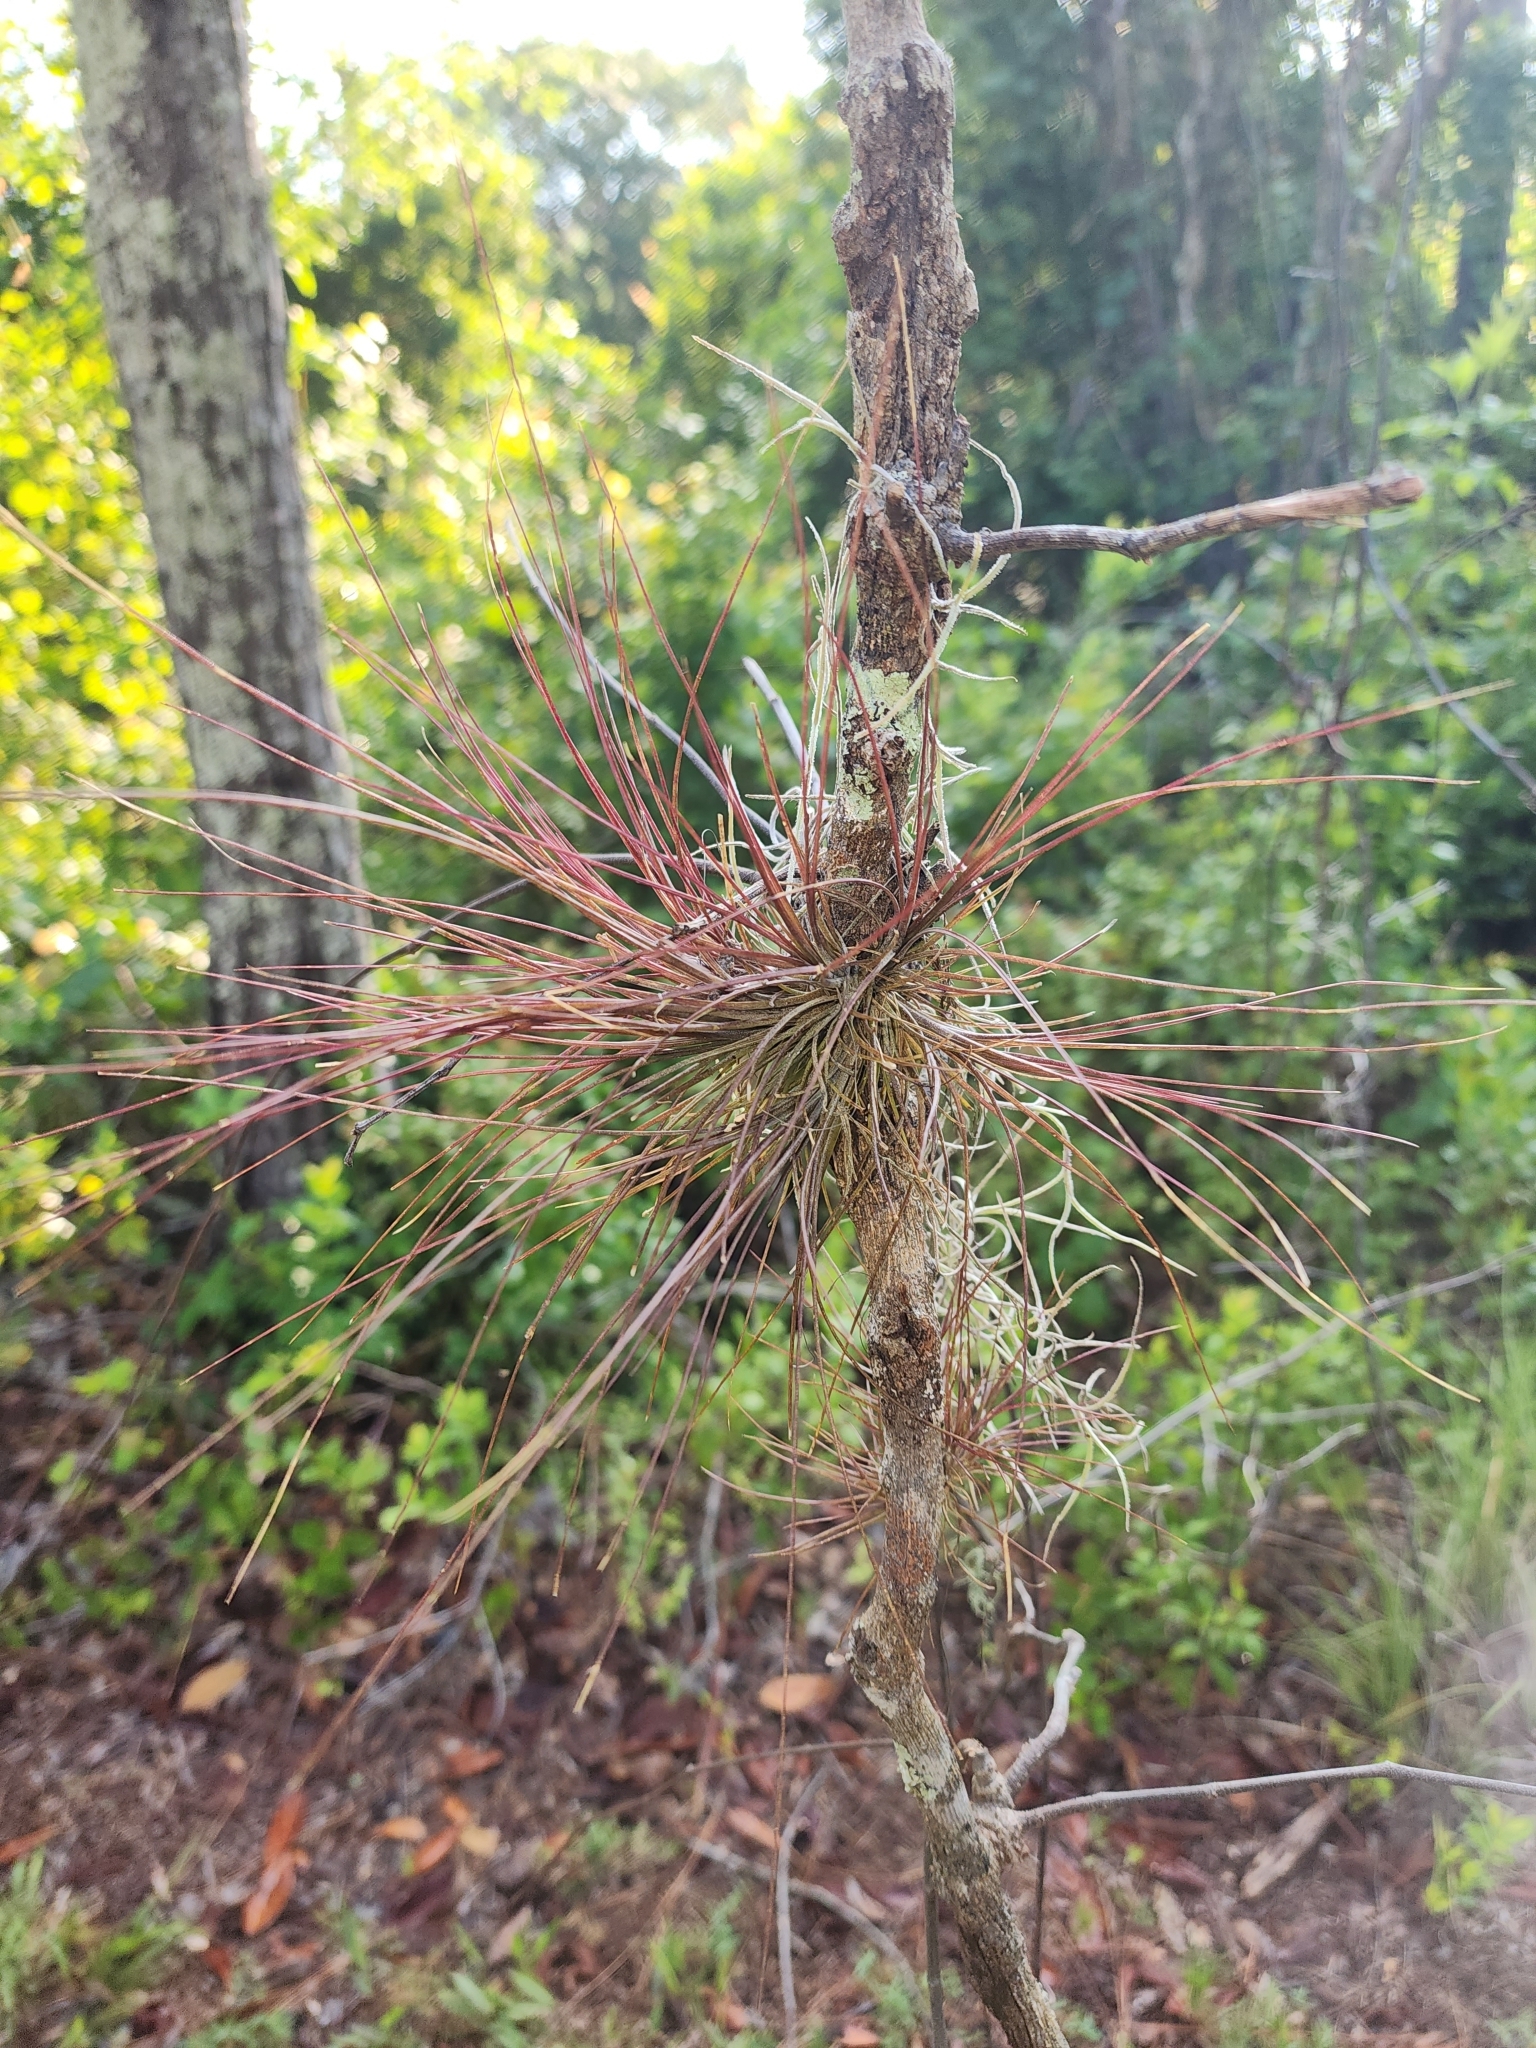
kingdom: Plantae
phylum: Tracheophyta
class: Liliopsida
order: Poales
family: Bromeliaceae
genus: Tillandsia
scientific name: Tillandsia setacea
